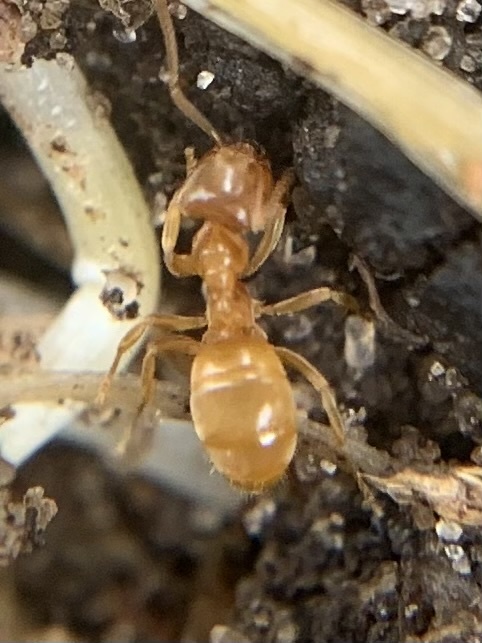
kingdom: Animalia
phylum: Arthropoda
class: Insecta
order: Hymenoptera
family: Formicidae
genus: Lasius
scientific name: Lasius flavus
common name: Blond field ant
